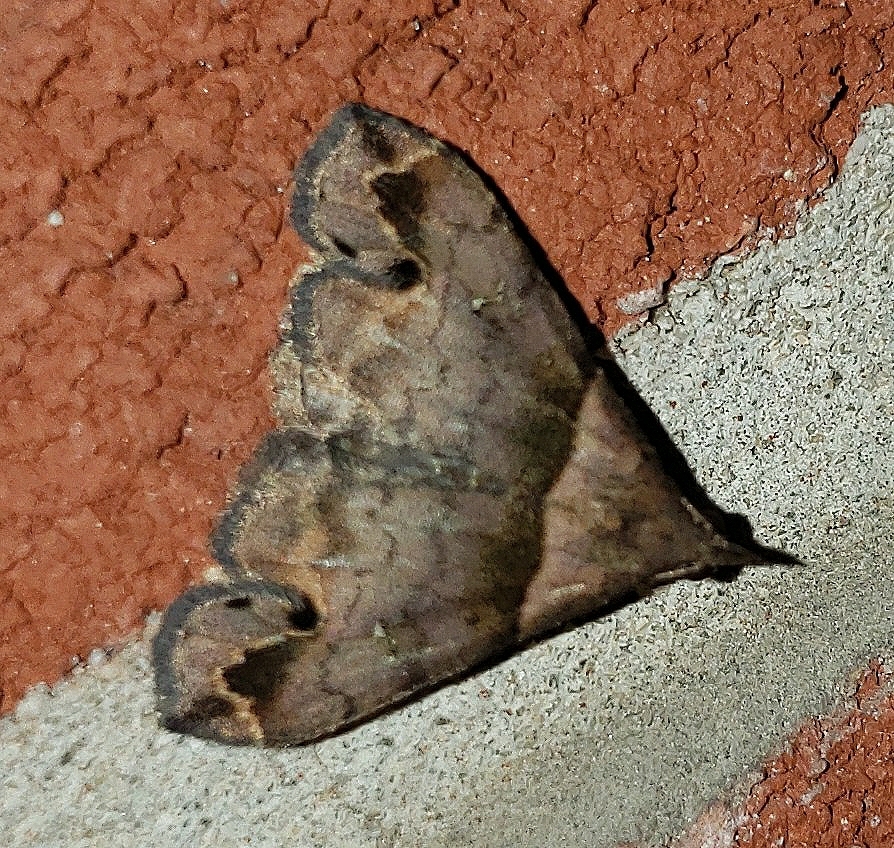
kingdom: Animalia
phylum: Arthropoda
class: Insecta
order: Lepidoptera
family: Erebidae
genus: Lascoria
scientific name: Lascoria ambigualis
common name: Ambiguous moth
